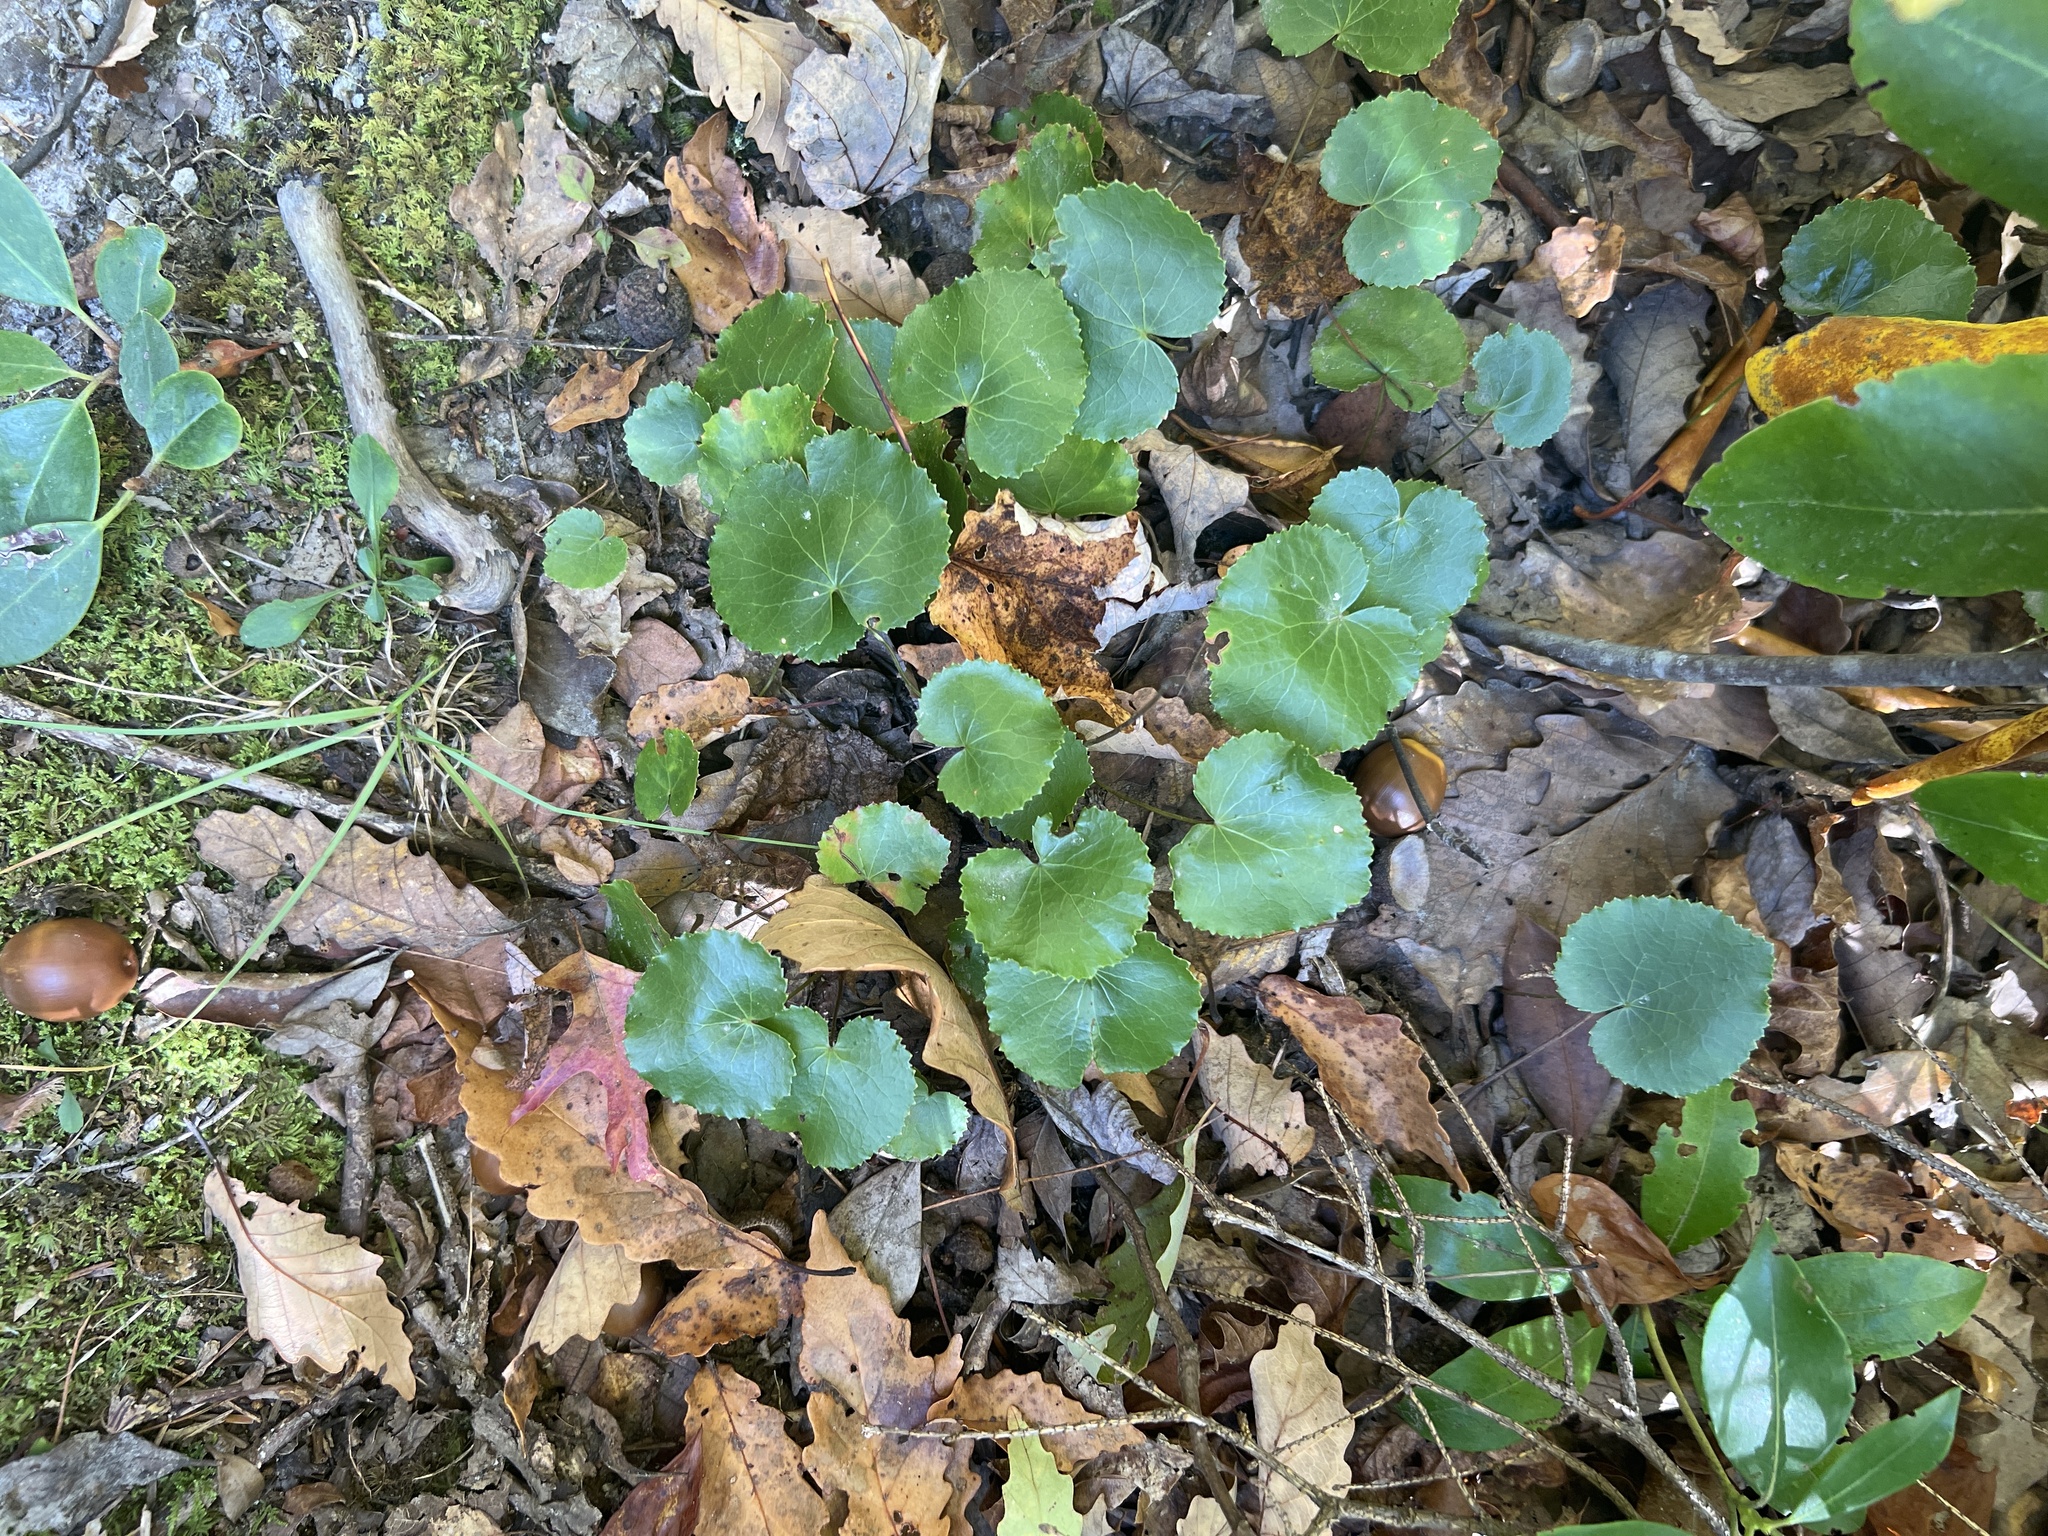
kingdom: Plantae
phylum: Tracheophyta
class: Magnoliopsida
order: Ericales
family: Diapensiaceae
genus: Galax
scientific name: Galax urceolata
